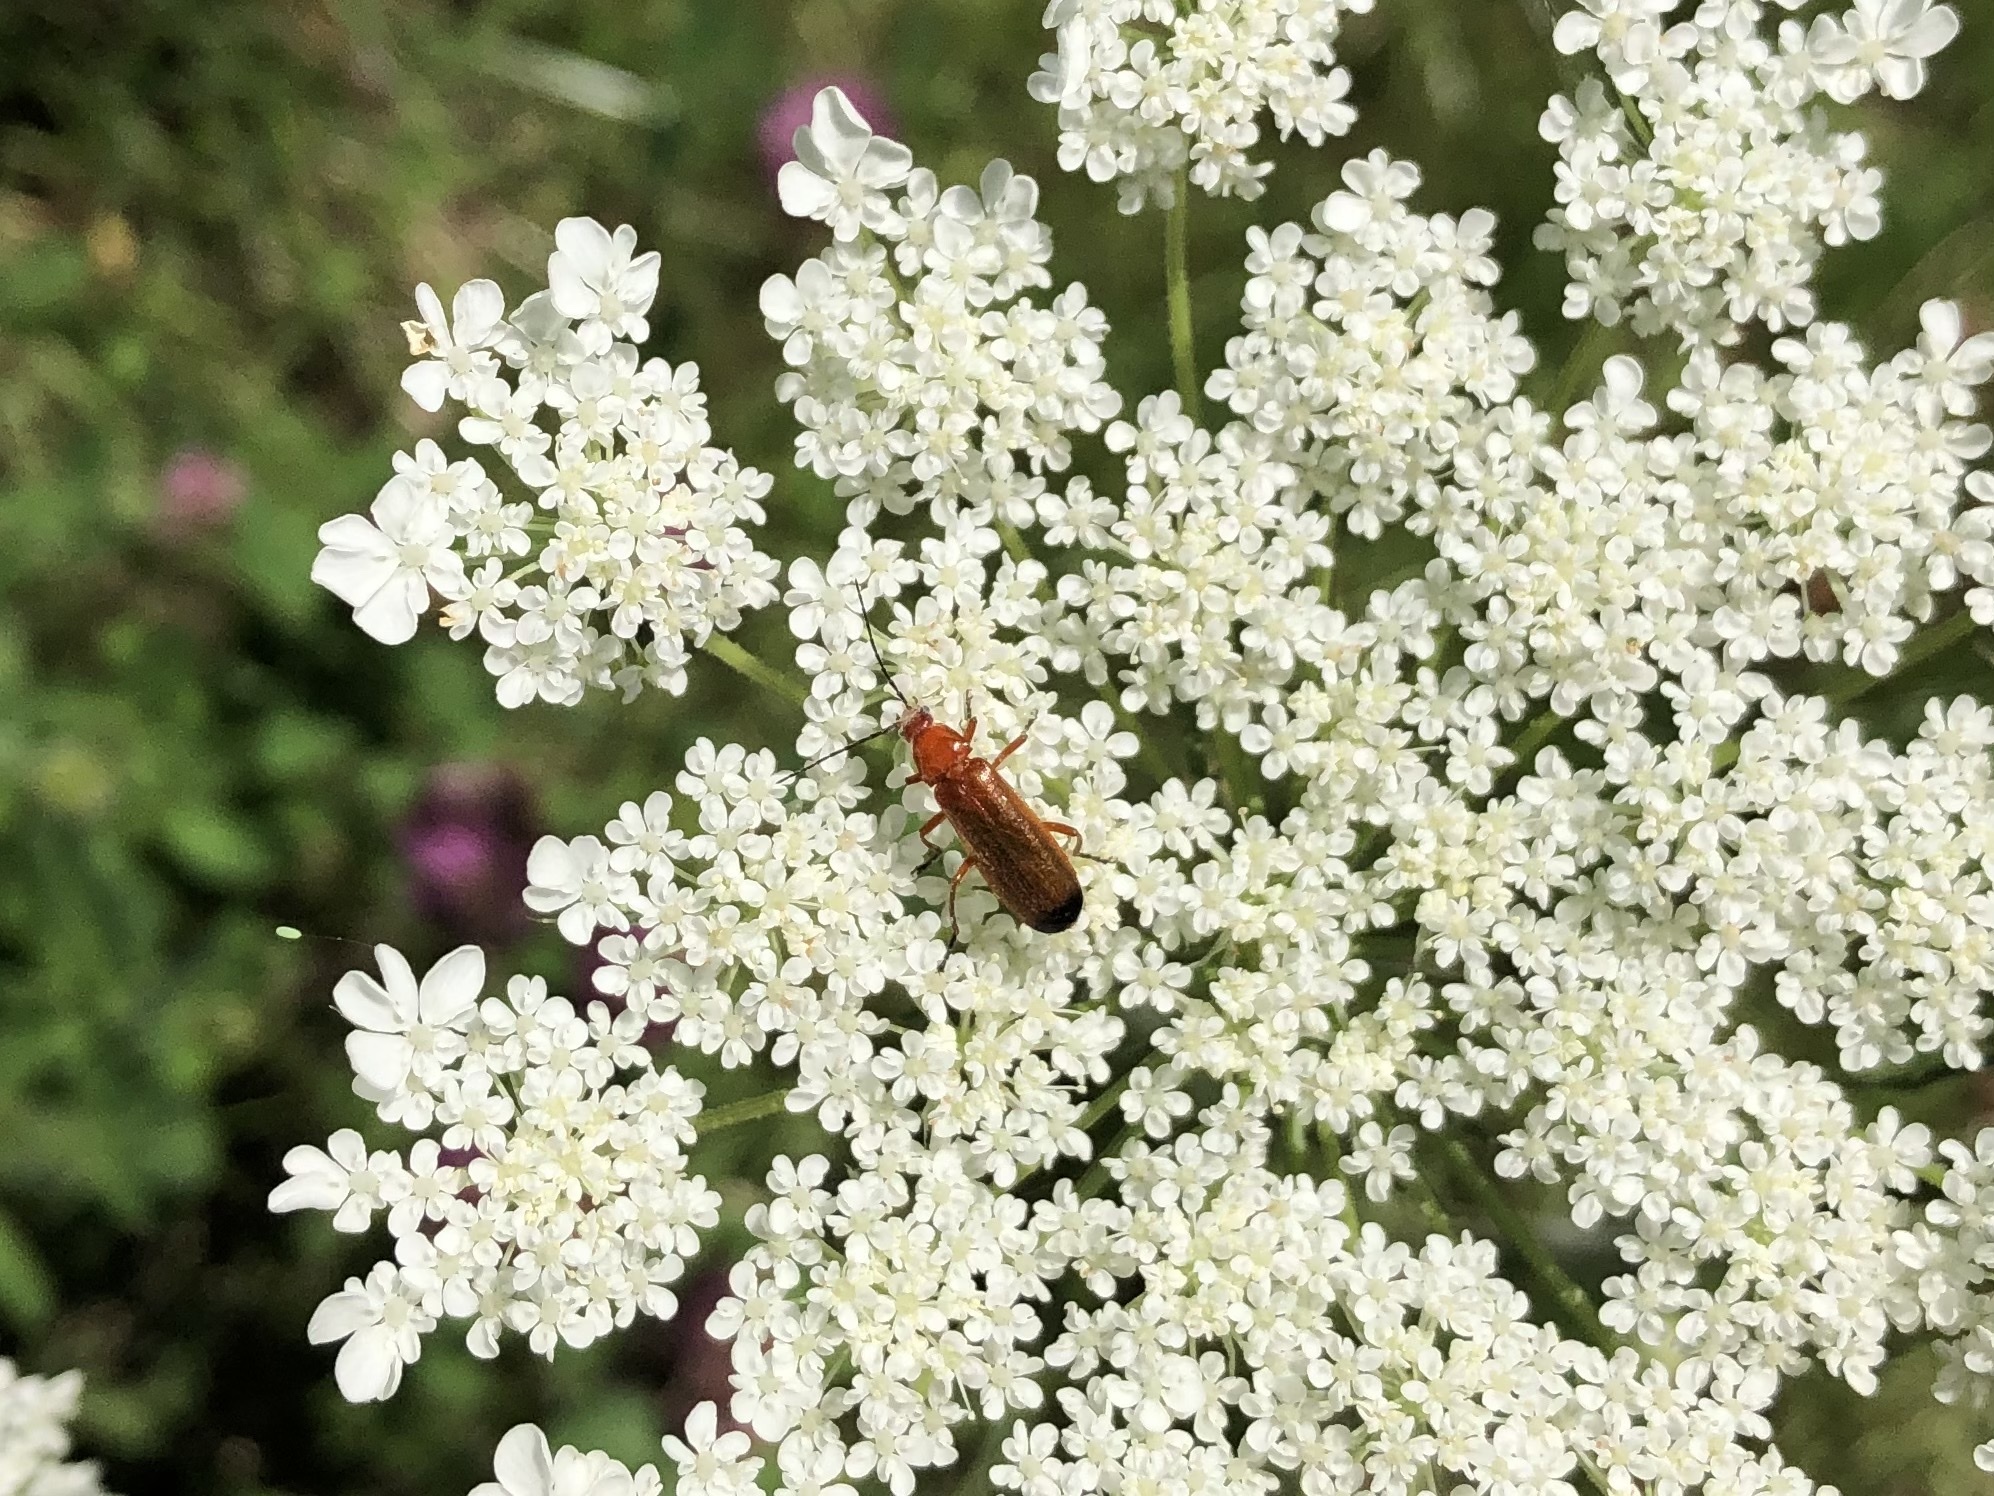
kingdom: Animalia
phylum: Arthropoda
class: Insecta
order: Coleoptera
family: Cantharidae
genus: Rhagonycha
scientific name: Rhagonycha fulva
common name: Common red soldier beetle
